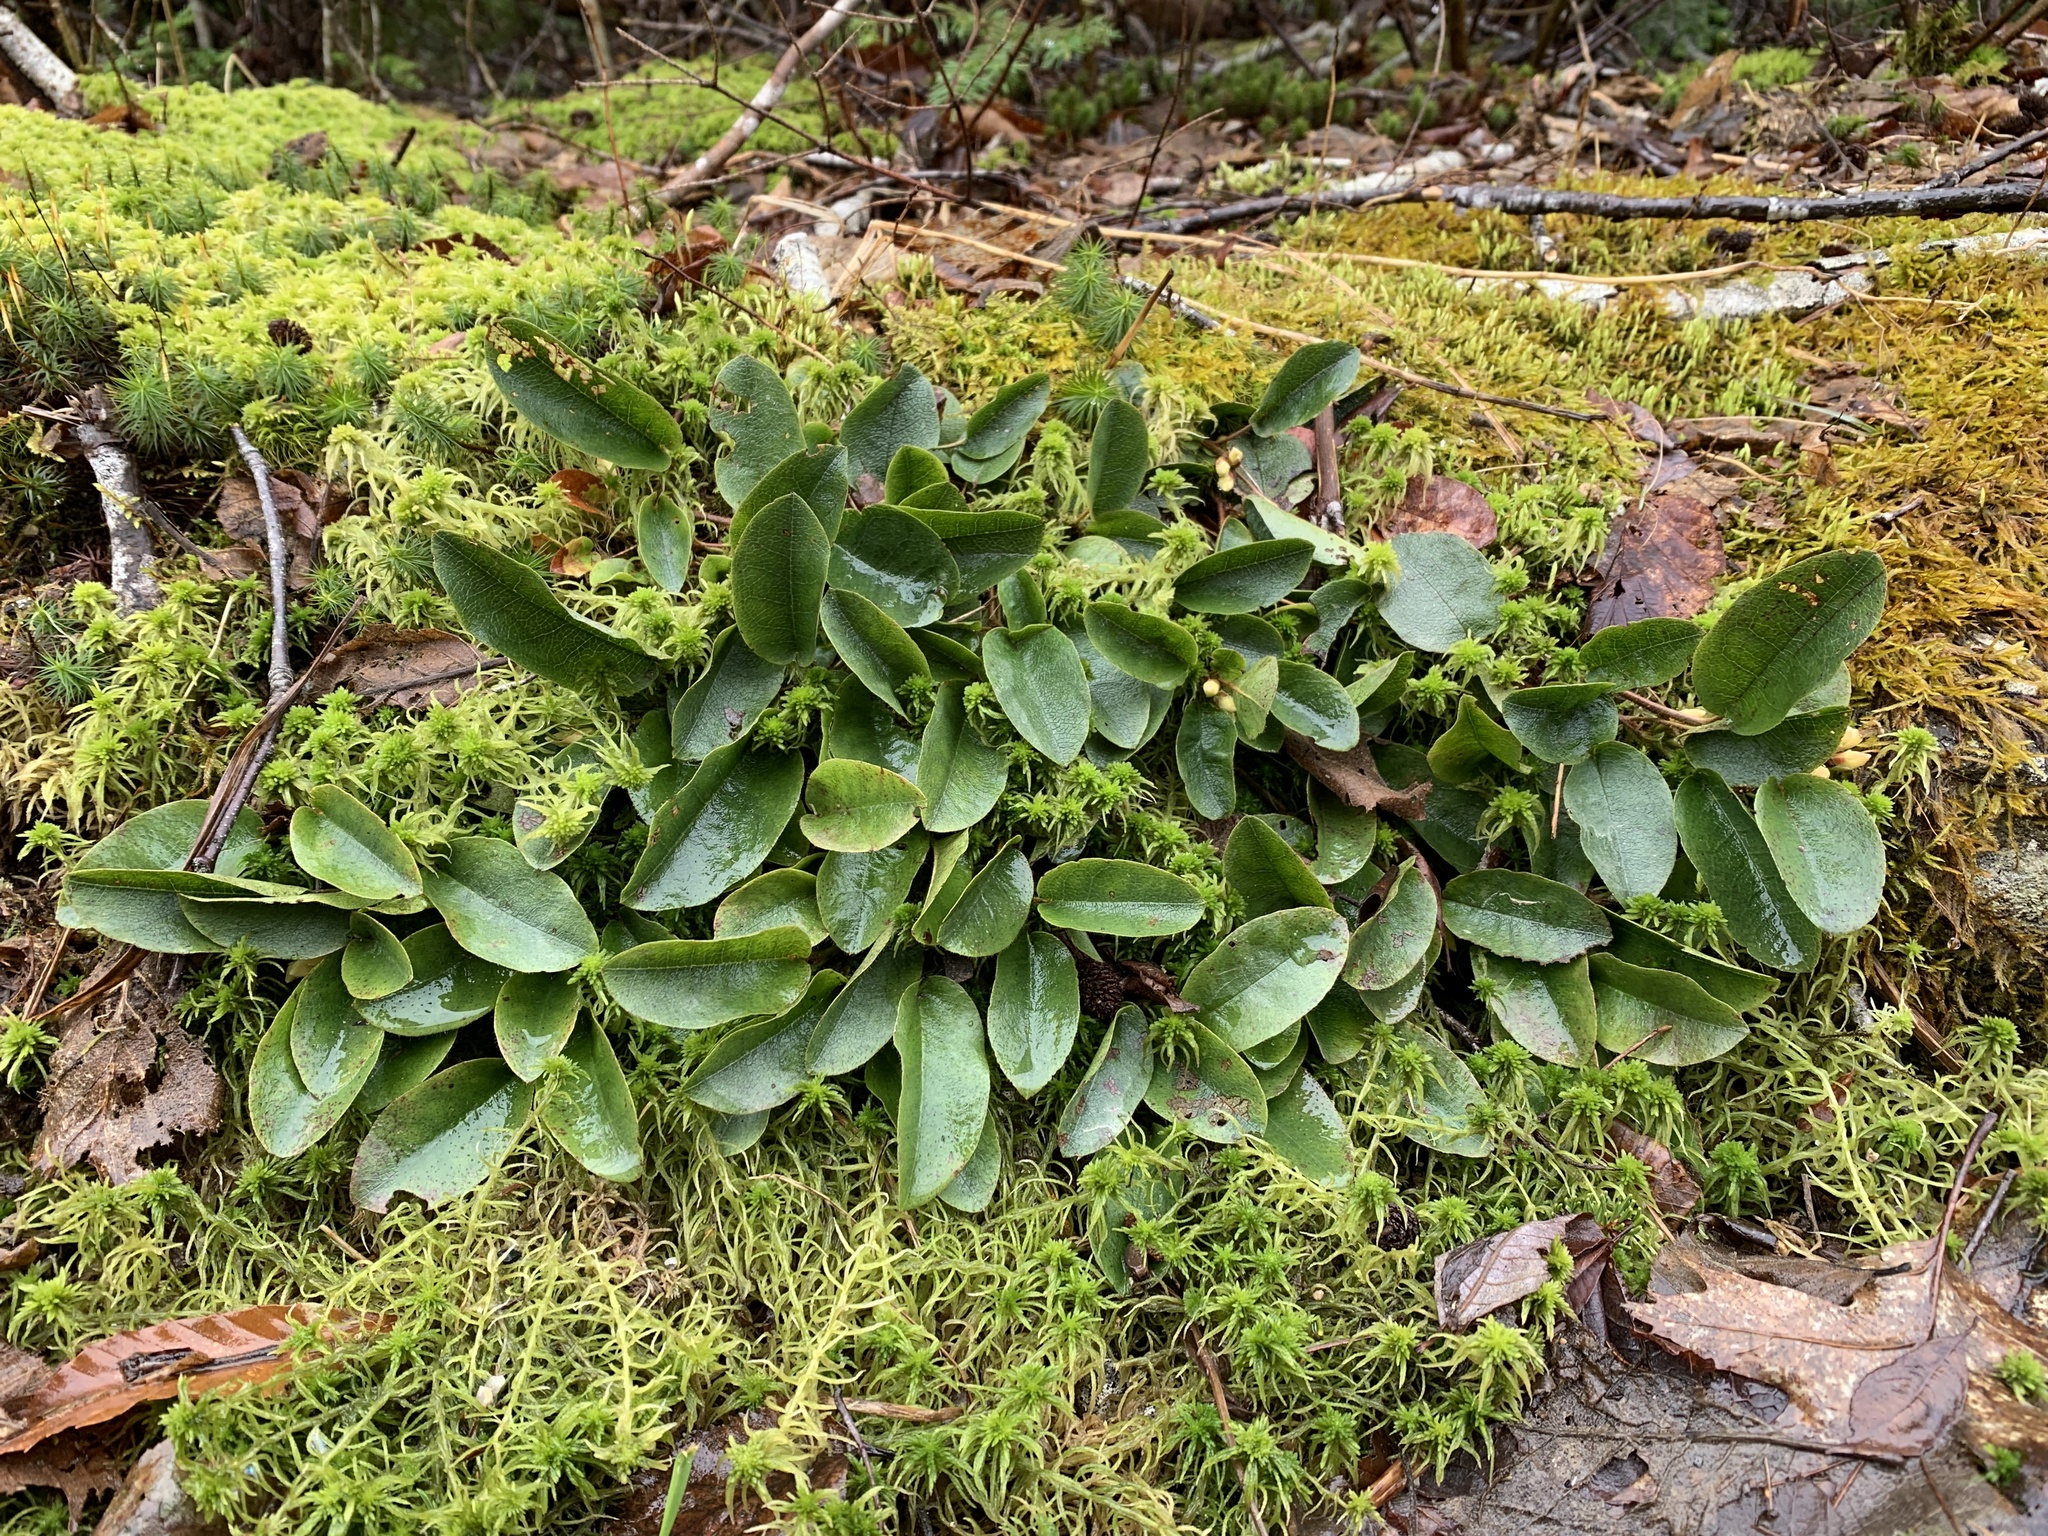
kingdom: Plantae
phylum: Tracheophyta
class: Magnoliopsida
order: Ericales
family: Ericaceae
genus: Epigaea
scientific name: Epigaea repens
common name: Gravelroot
